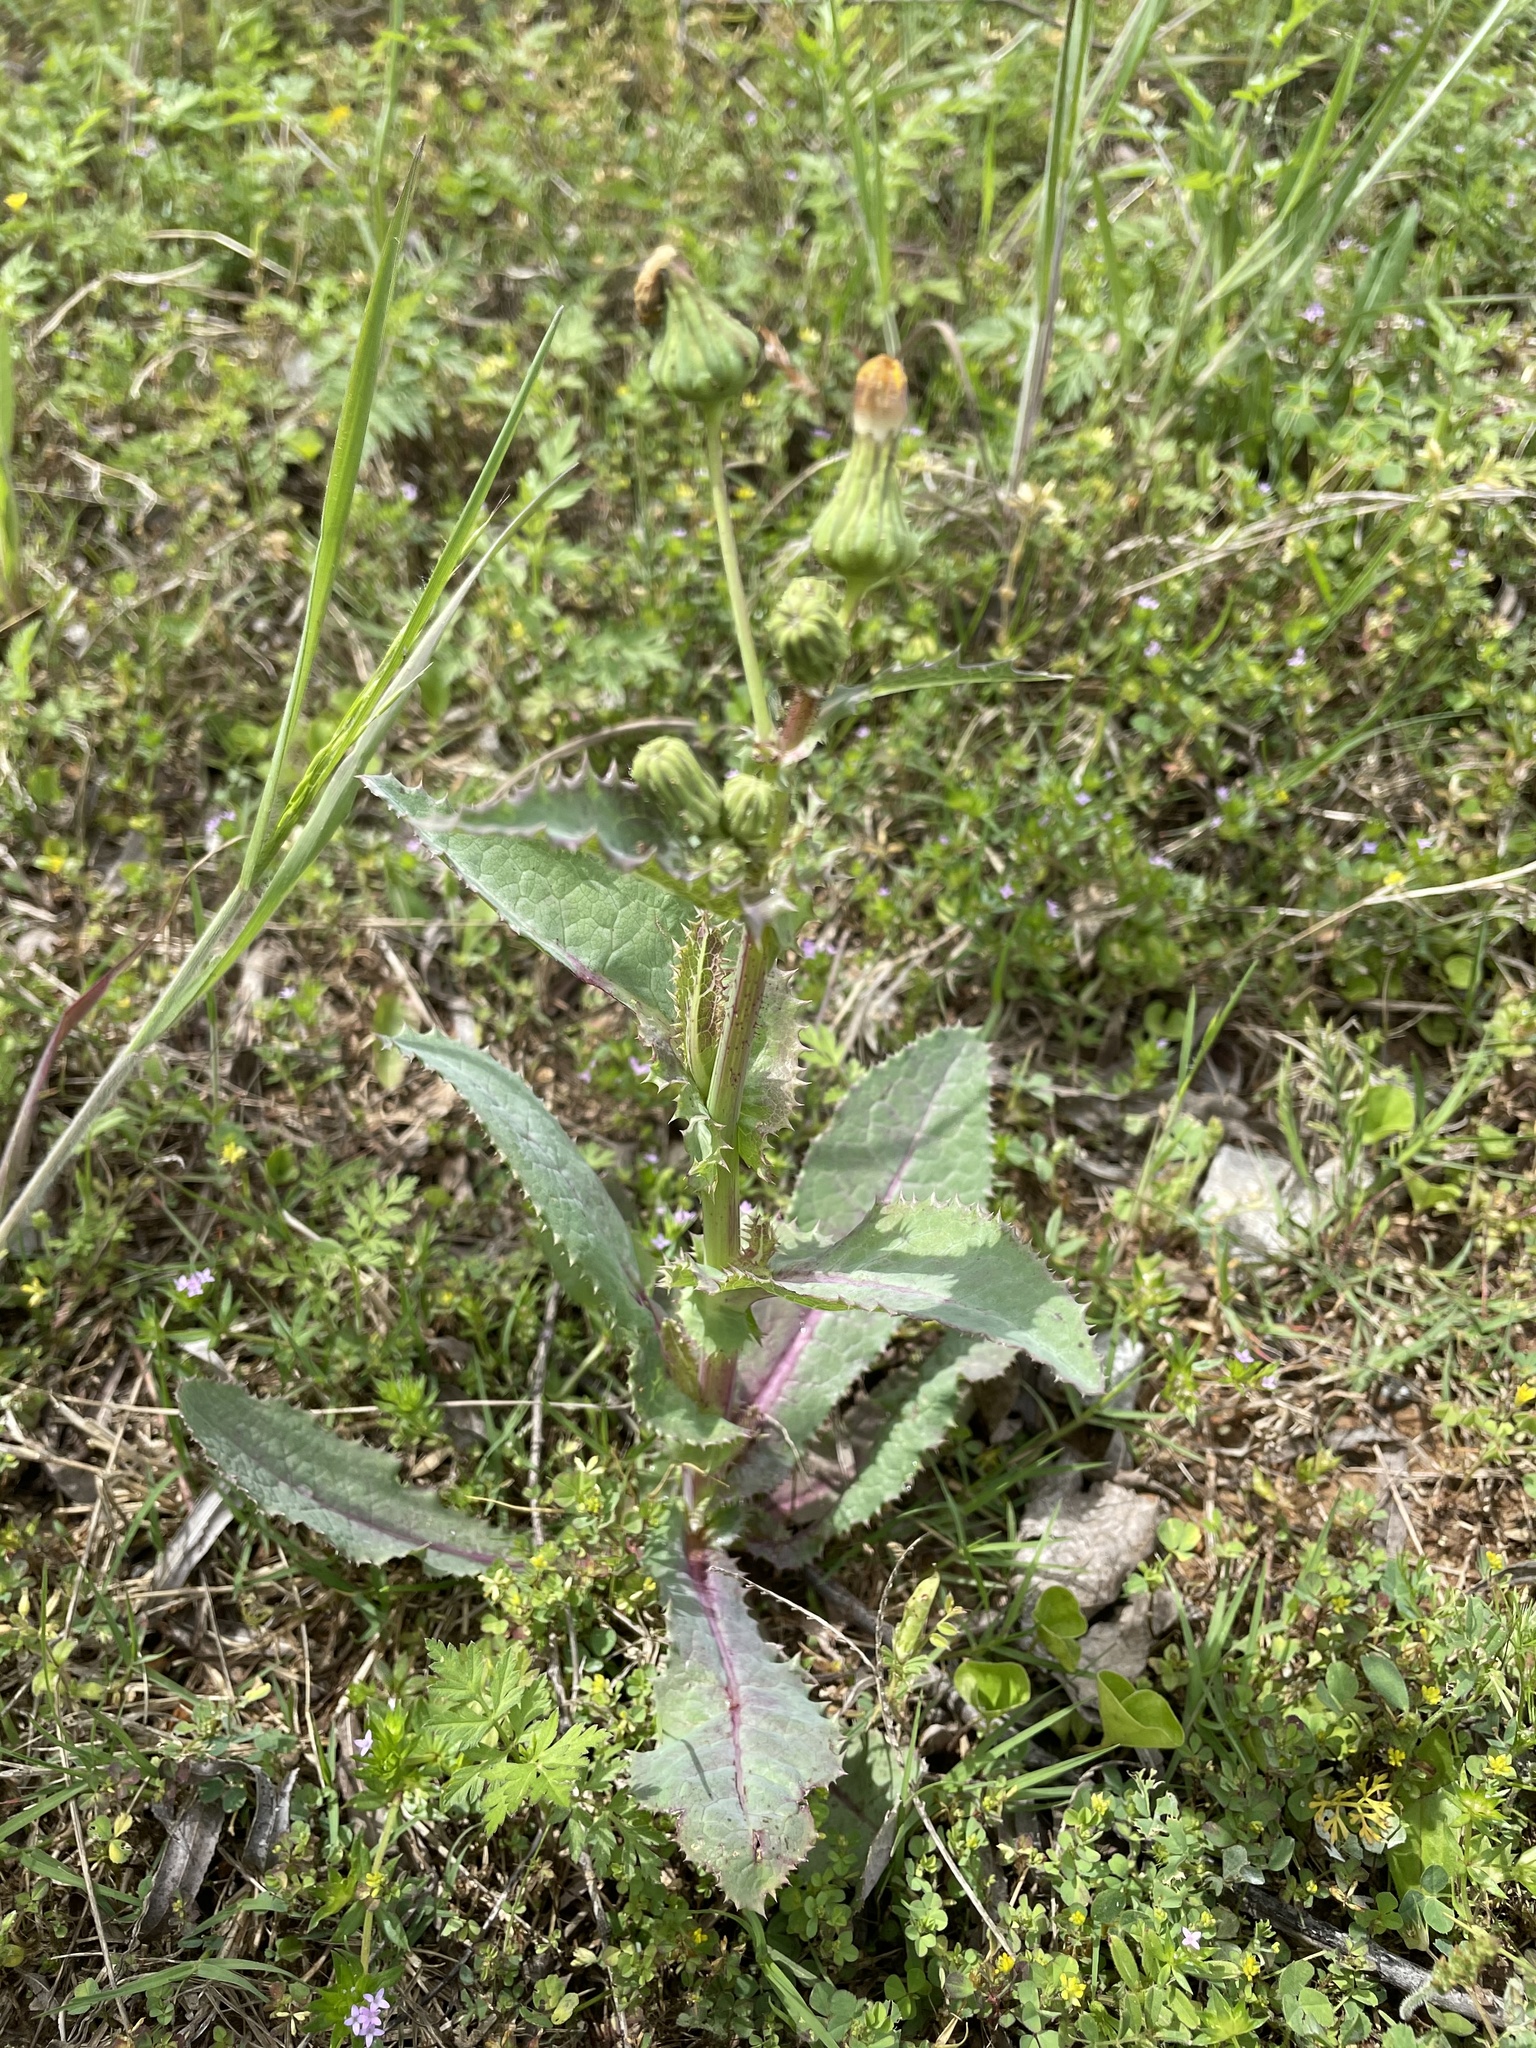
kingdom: Plantae
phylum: Tracheophyta
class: Magnoliopsida
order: Asterales
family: Asteraceae
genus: Sonchus
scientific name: Sonchus oleraceus
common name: Common sowthistle
